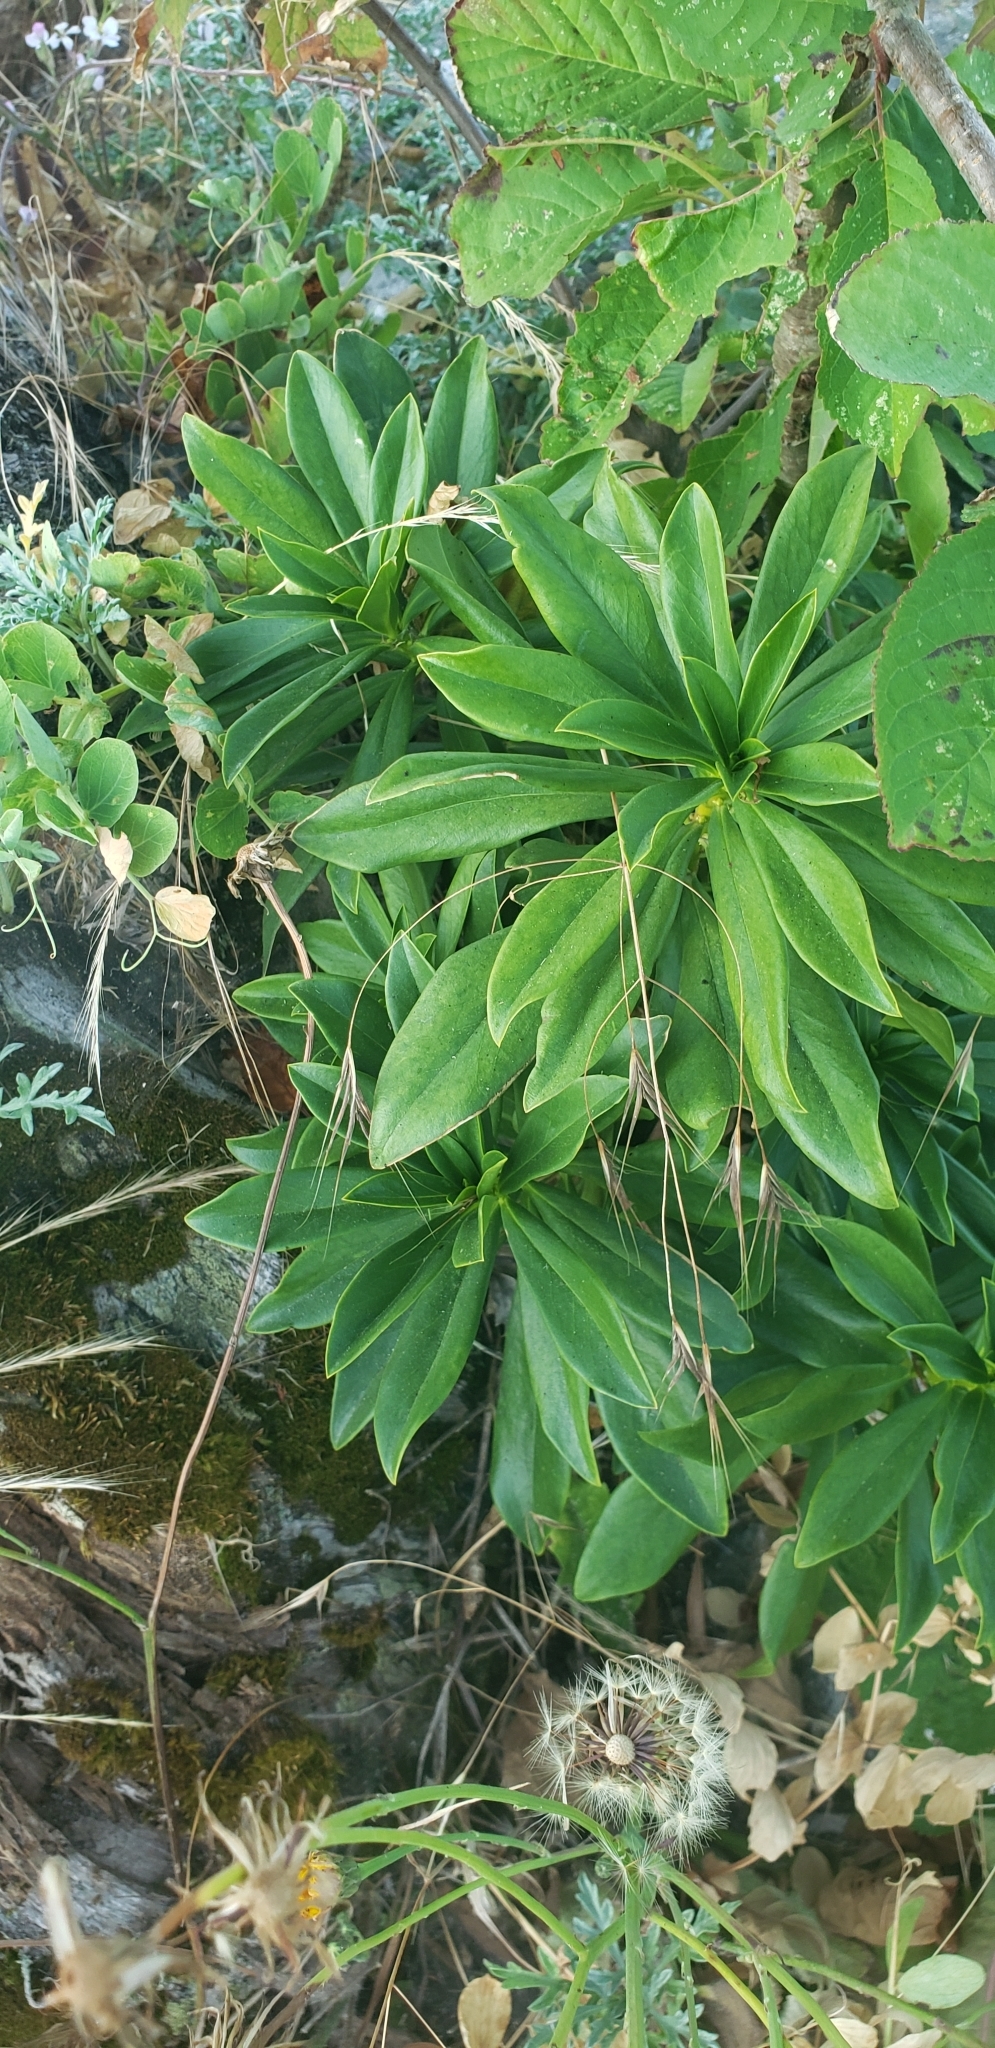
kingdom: Plantae
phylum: Tracheophyta
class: Magnoliopsida
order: Malvales
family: Thymelaeaceae
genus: Daphne
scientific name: Daphne laureola
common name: Spurge-laurel
